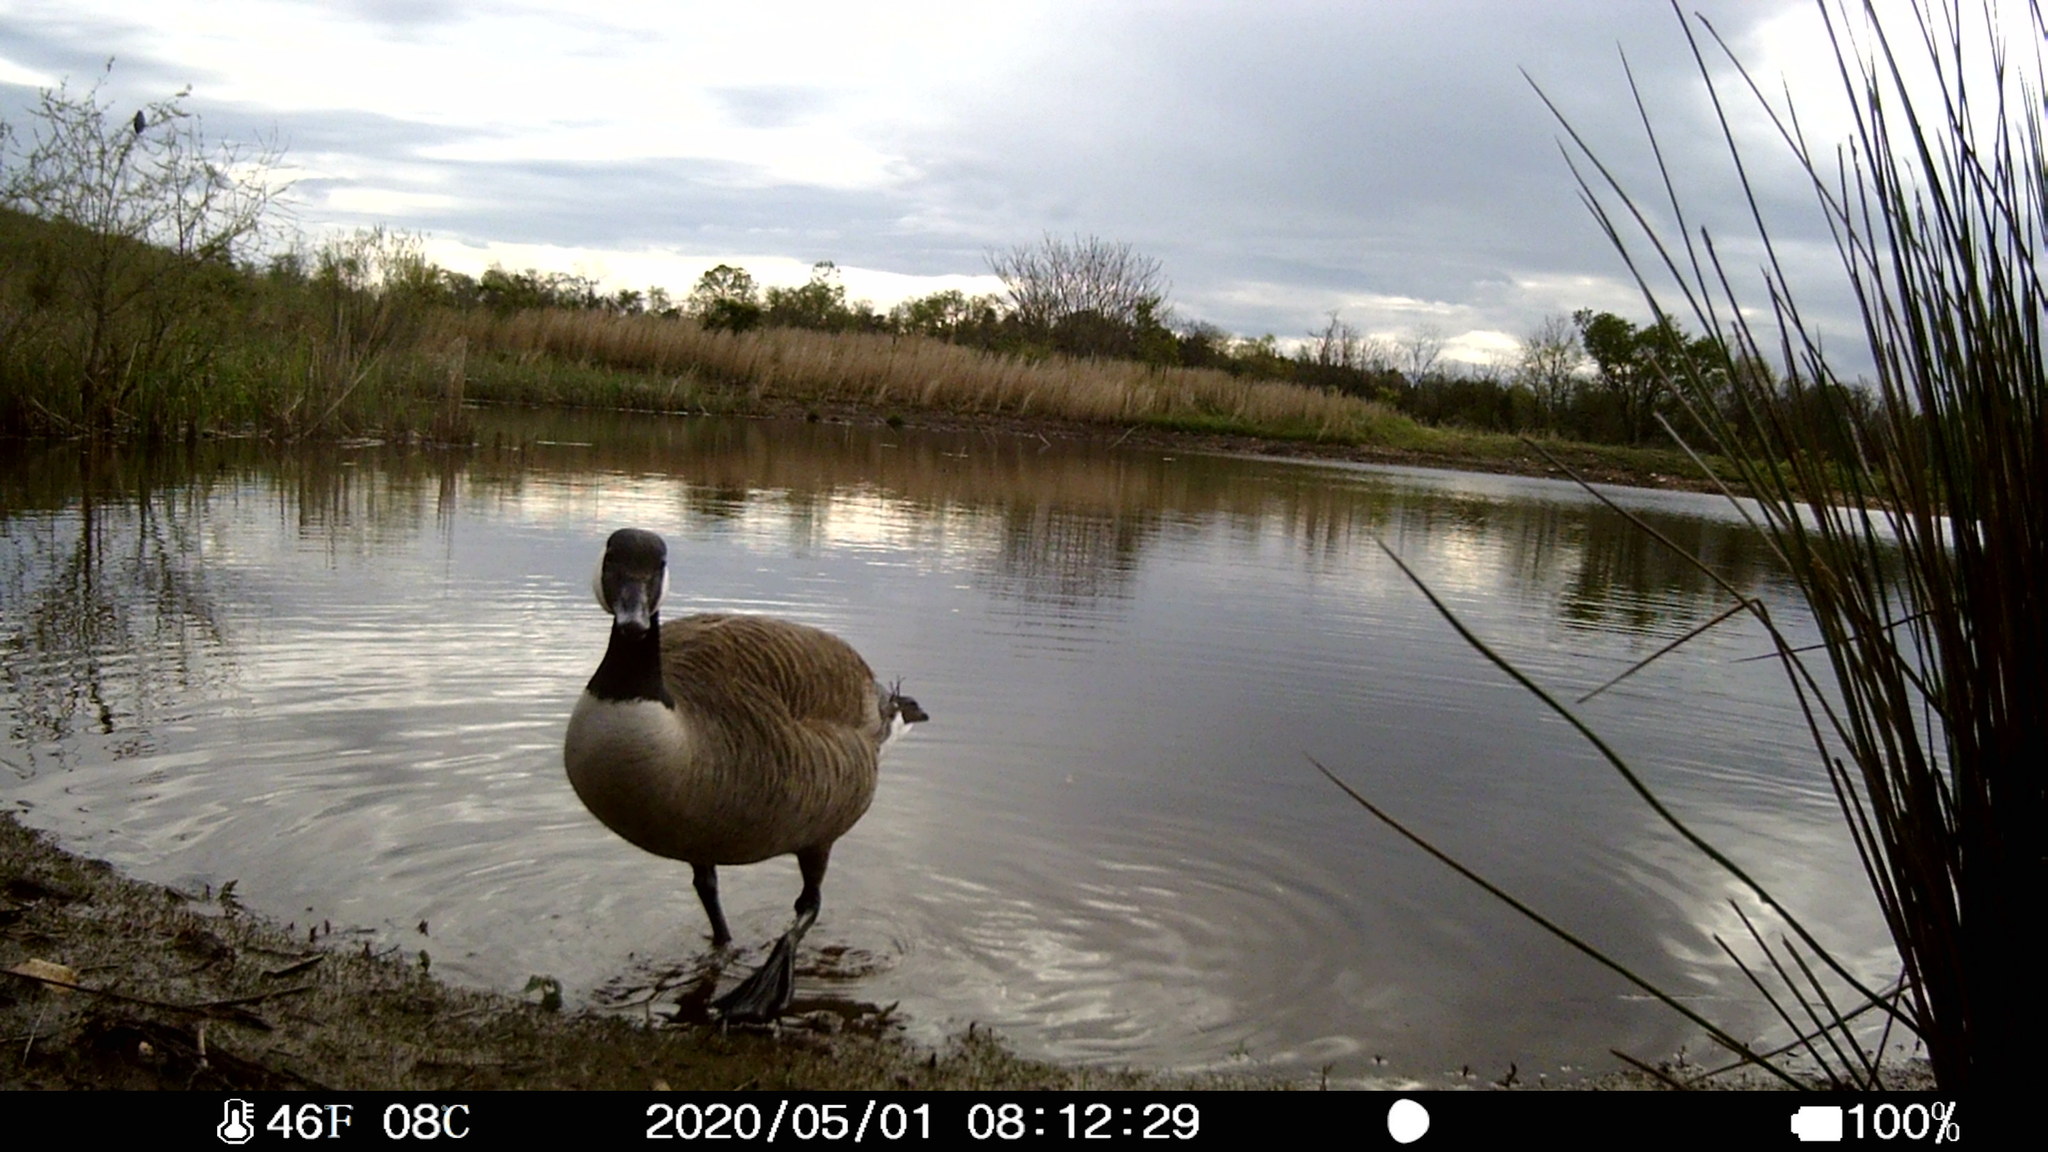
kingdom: Animalia
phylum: Chordata
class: Aves
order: Anseriformes
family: Anatidae
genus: Branta
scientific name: Branta canadensis
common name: Canada goose
